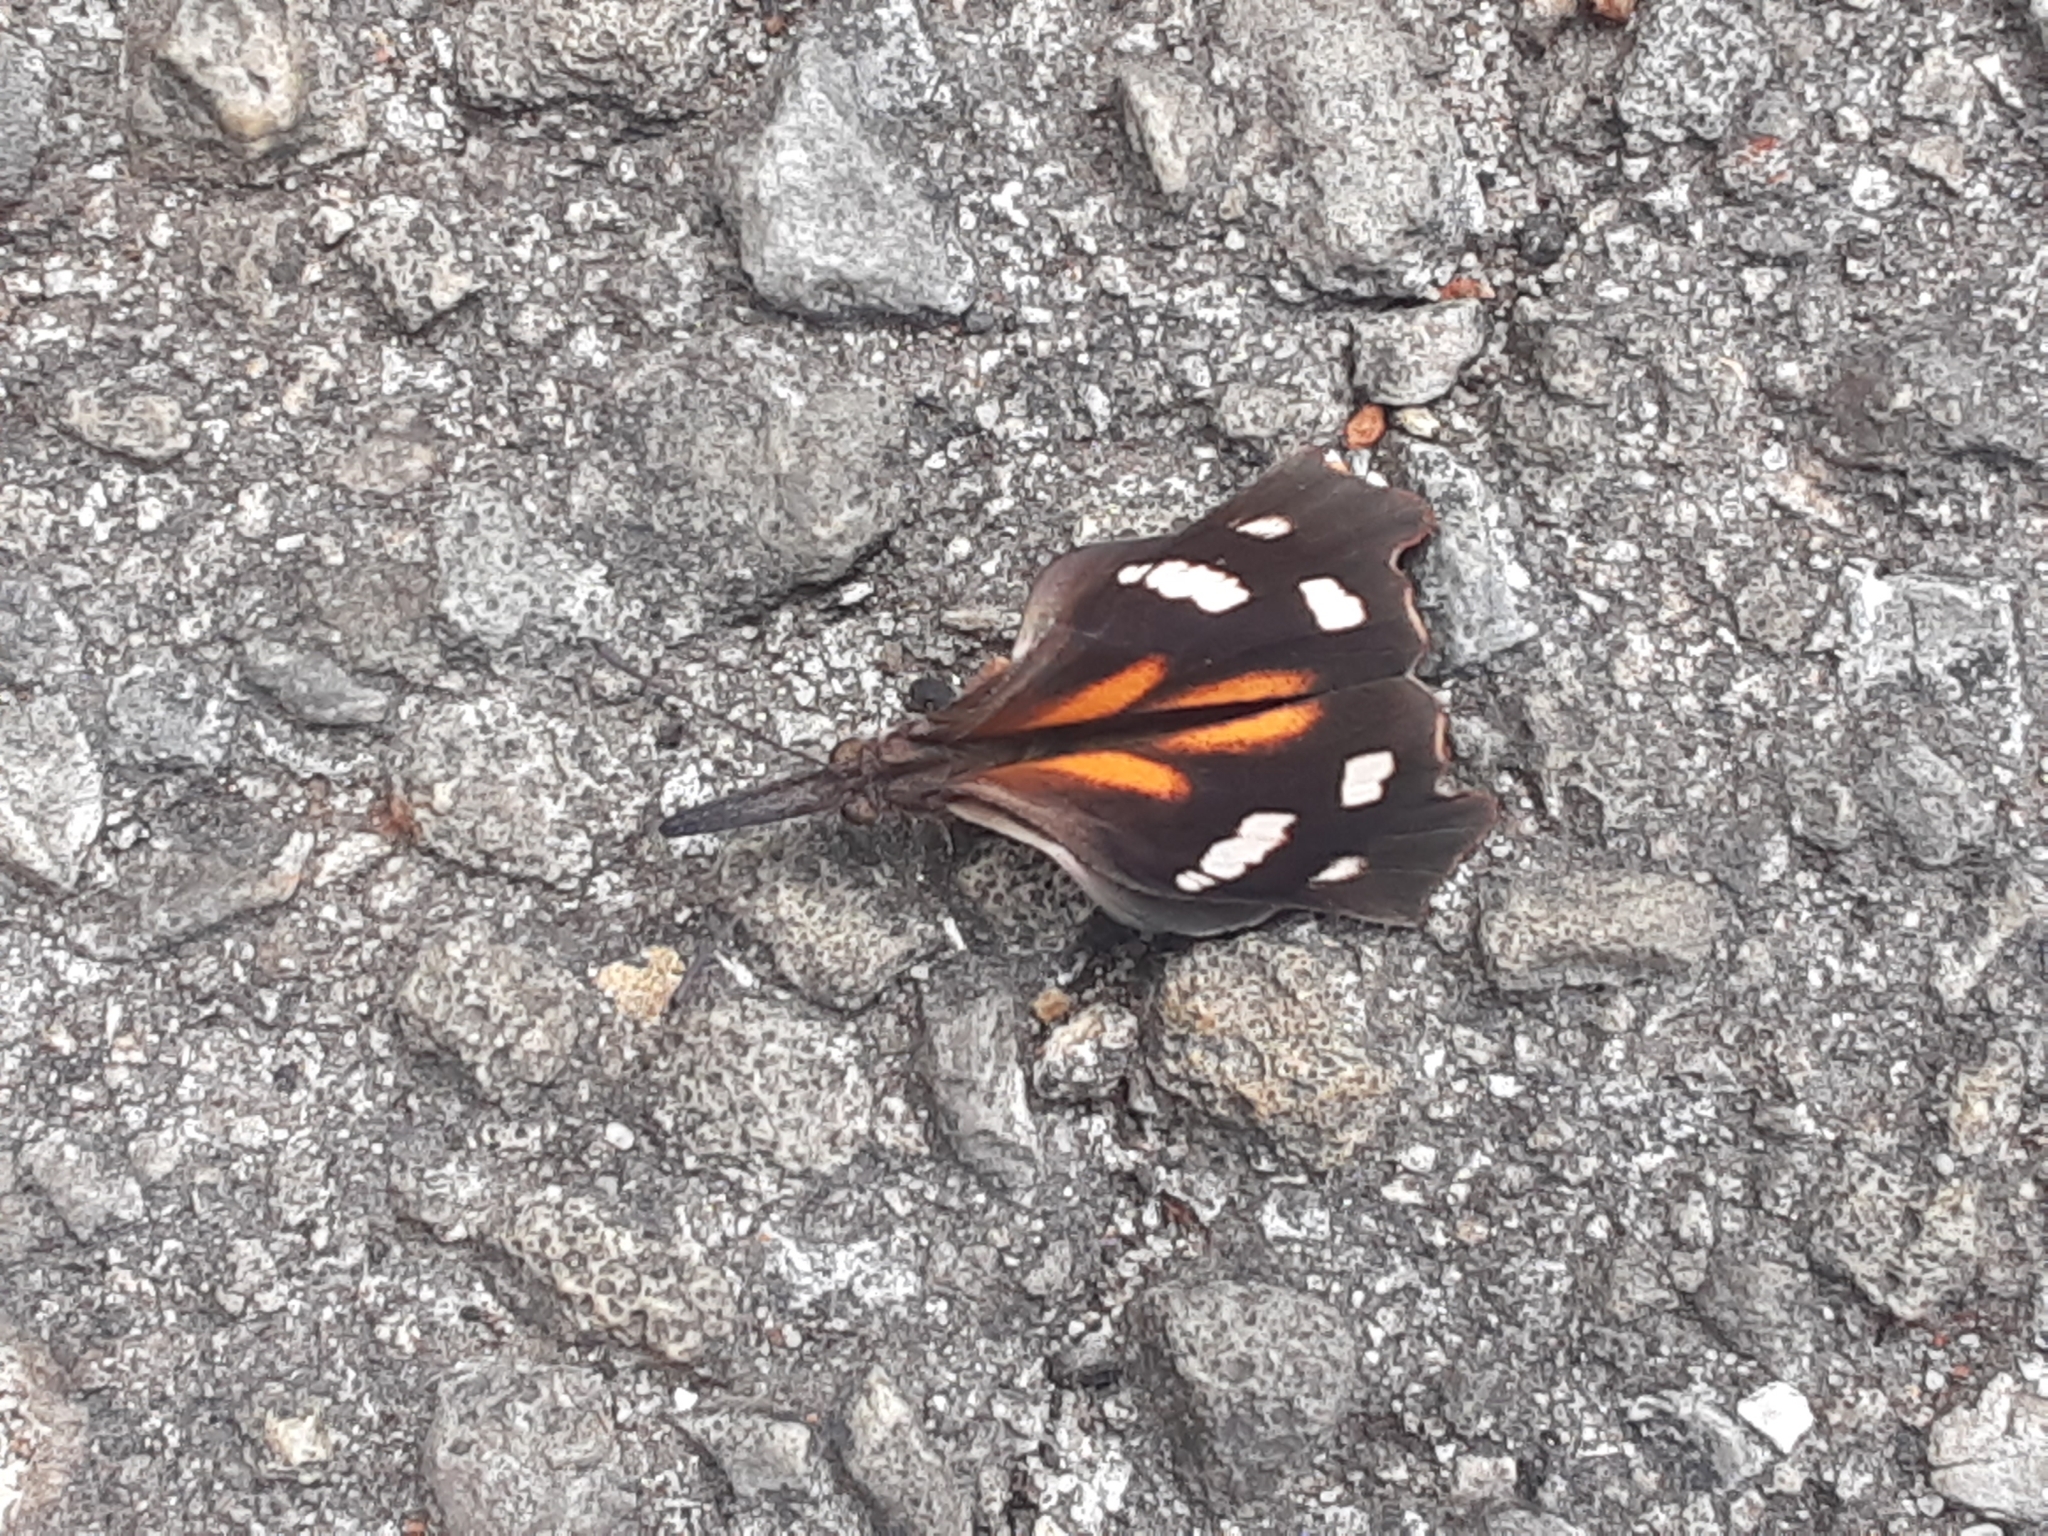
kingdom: Animalia
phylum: Arthropoda
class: Insecta
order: Lepidoptera
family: Nymphalidae
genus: Libytheana
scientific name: Libytheana carinenta
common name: American snout
